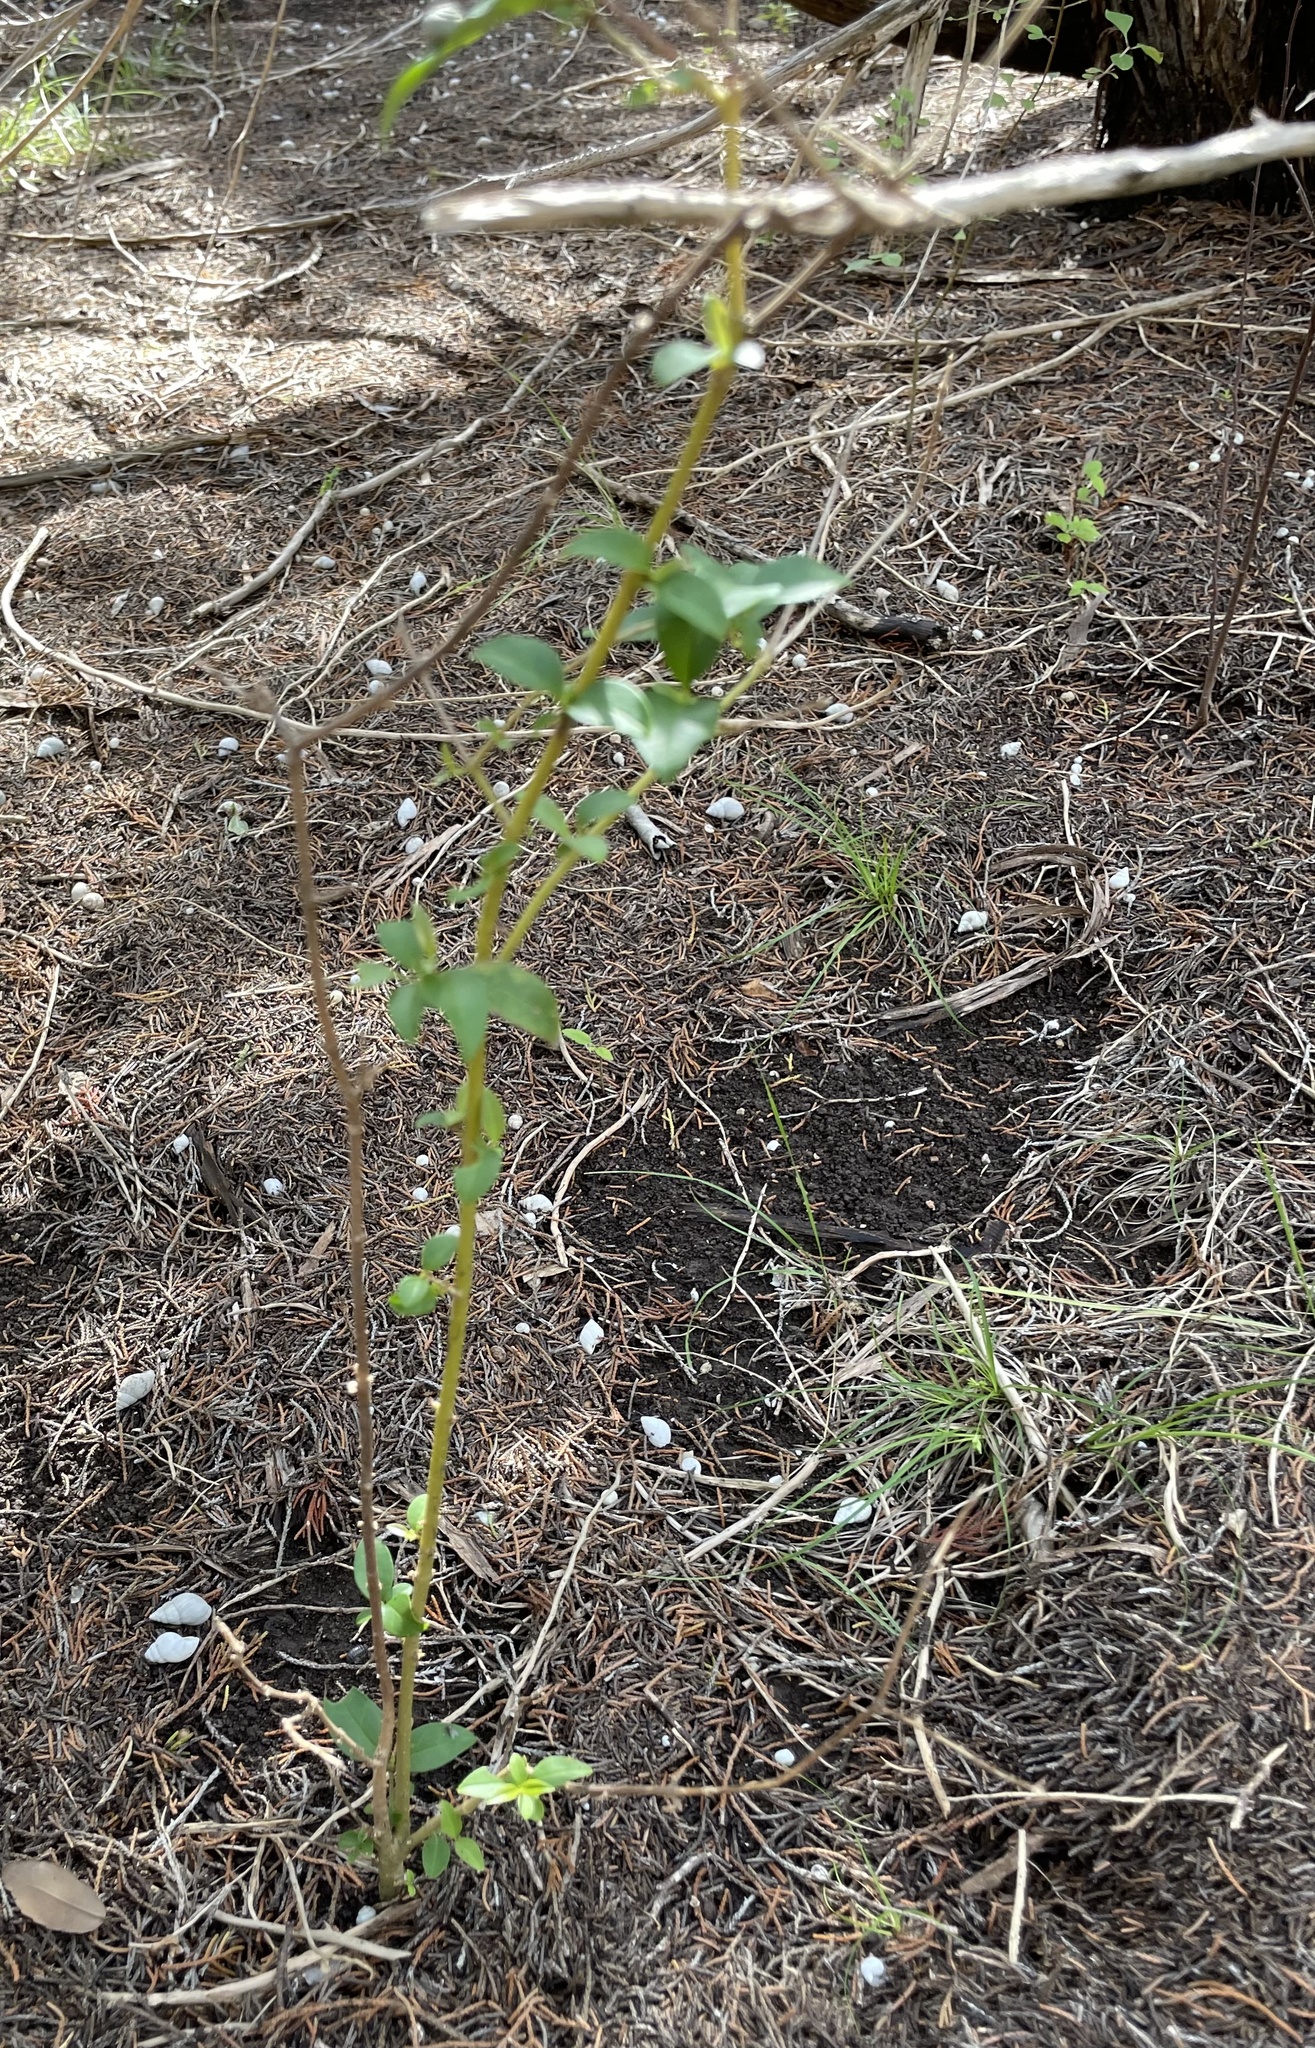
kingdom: Plantae
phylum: Tracheophyta
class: Magnoliopsida
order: Lamiales
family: Oleaceae
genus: Ligustrum
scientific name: Ligustrum lucidum
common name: Glossy privet
